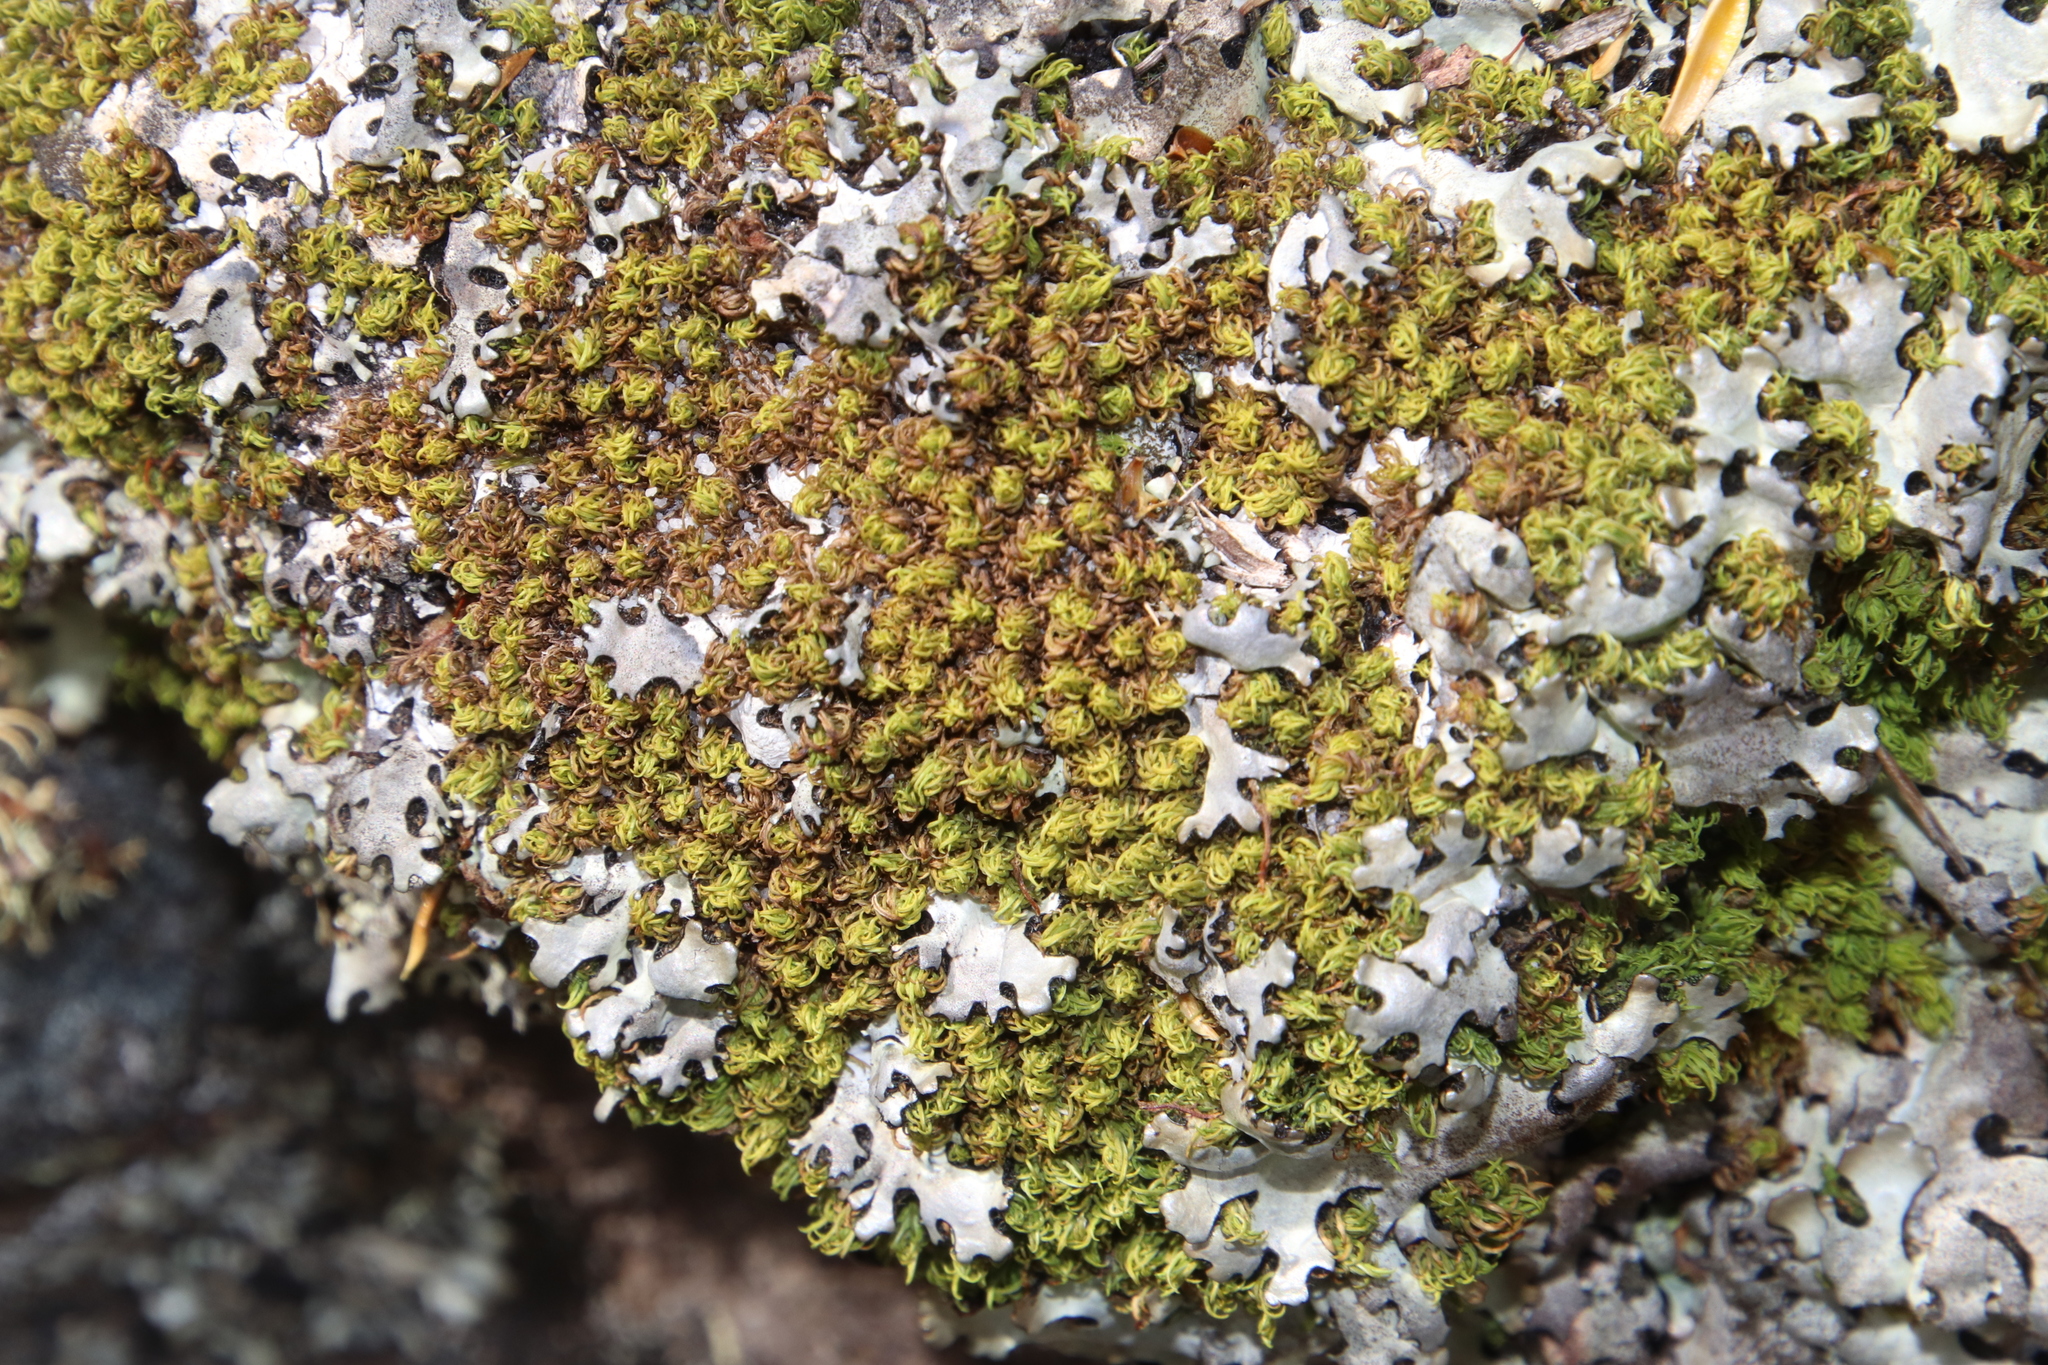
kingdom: Plantae
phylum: Bryophyta
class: Bryopsida
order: Dicranales
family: Hypodontiaceae
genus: Hypodontium
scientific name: Hypodontium pomiforme
